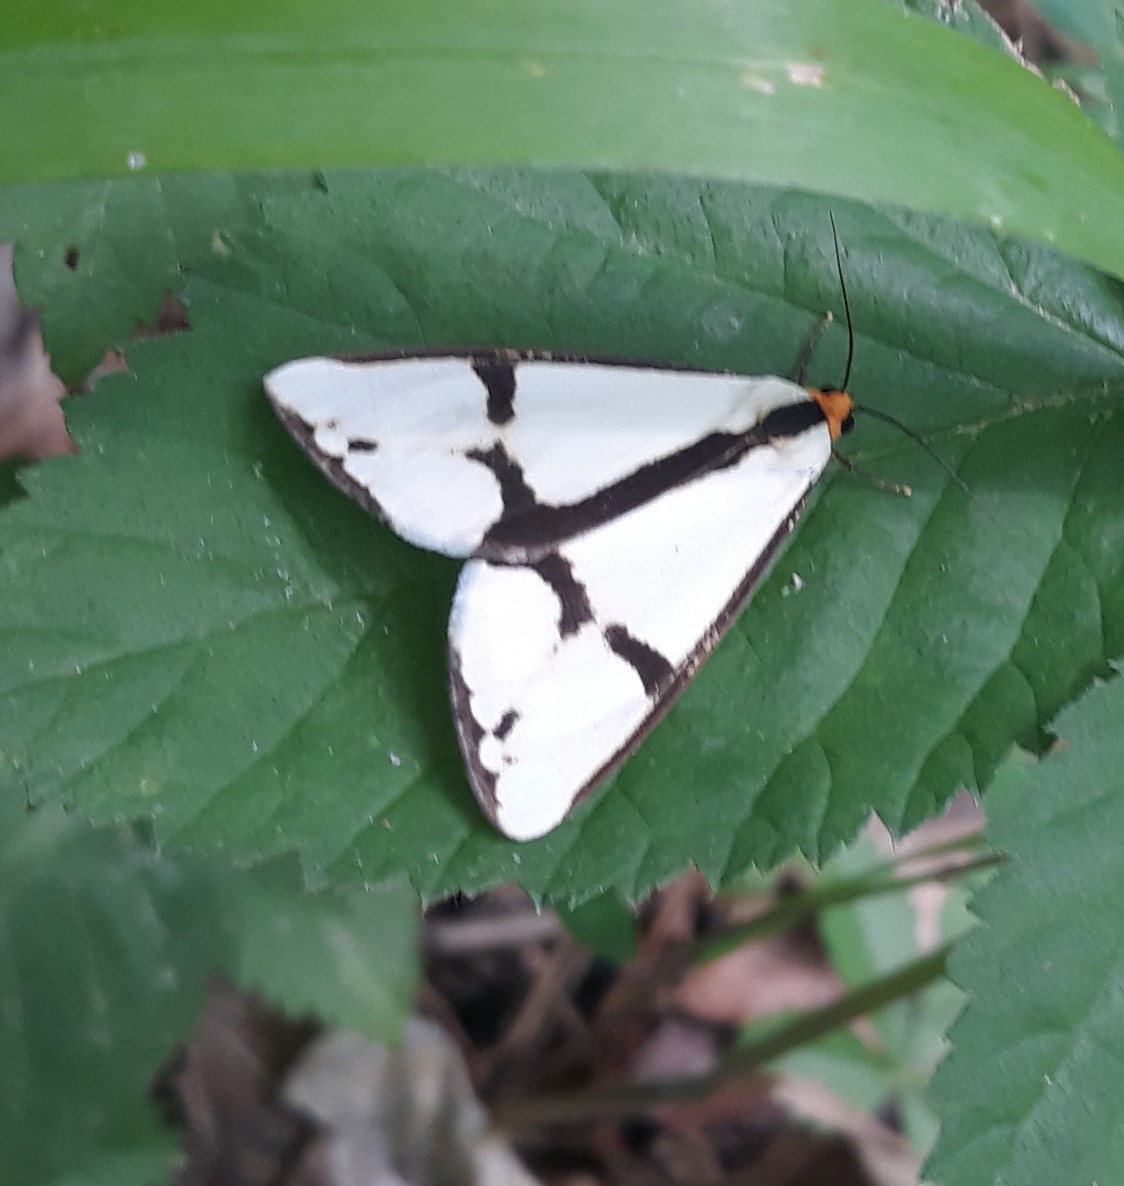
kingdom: Animalia
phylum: Arthropoda
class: Insecta
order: Lepidoptera
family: Erebidae
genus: Haploa
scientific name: Haploa contigua
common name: Neighbor moth
